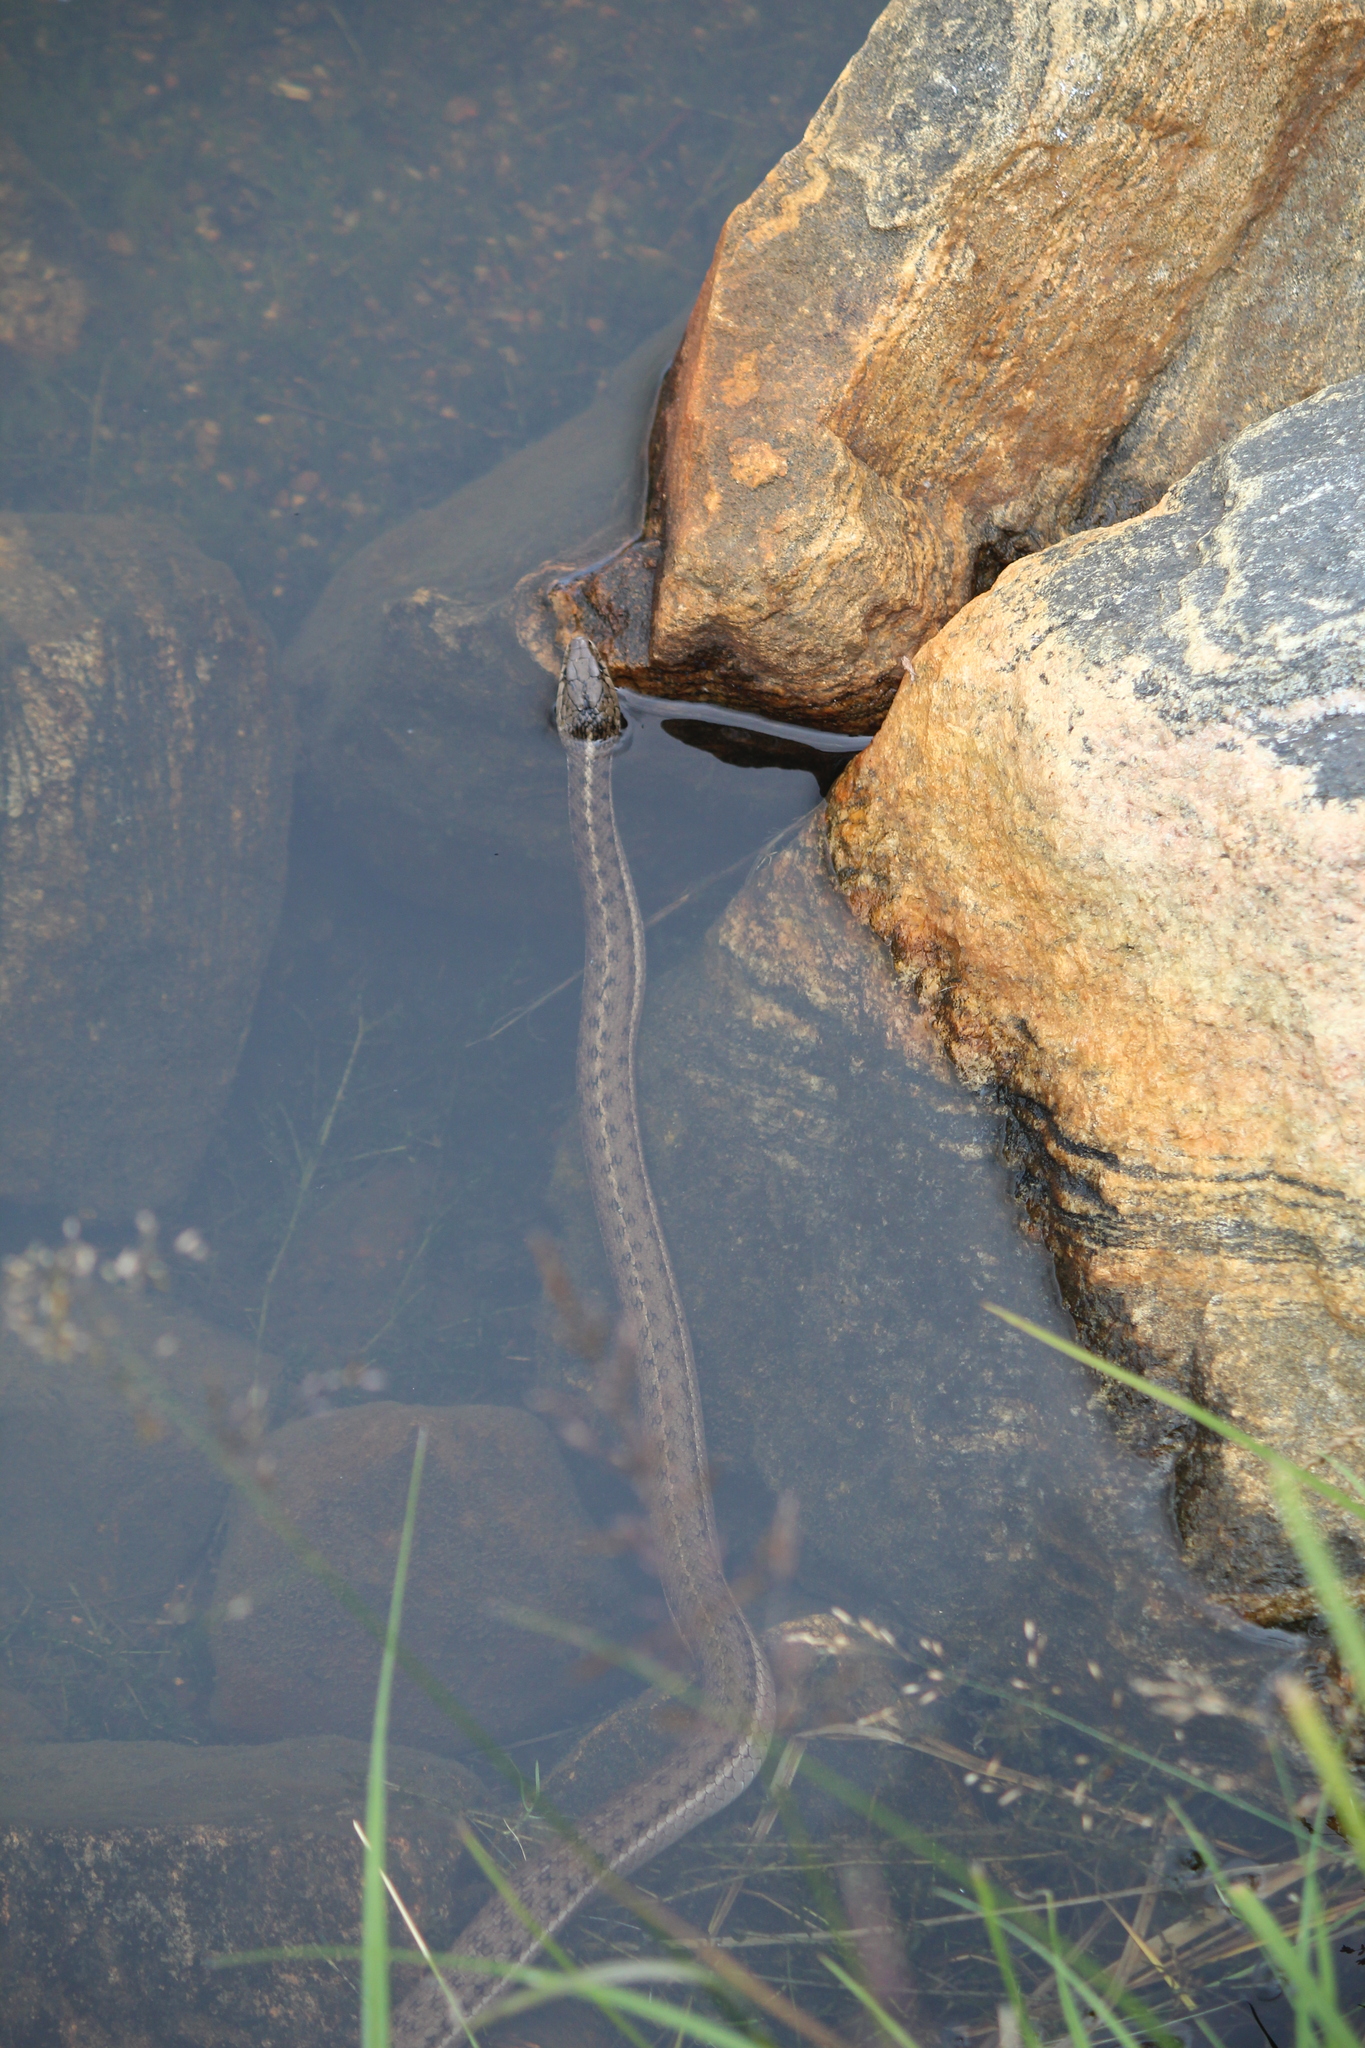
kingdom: Animalia
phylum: Chordata
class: Squamata
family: Colubridae
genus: Thamnophis
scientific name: Thamnophis elegans
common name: Western terrestrial garter snake
